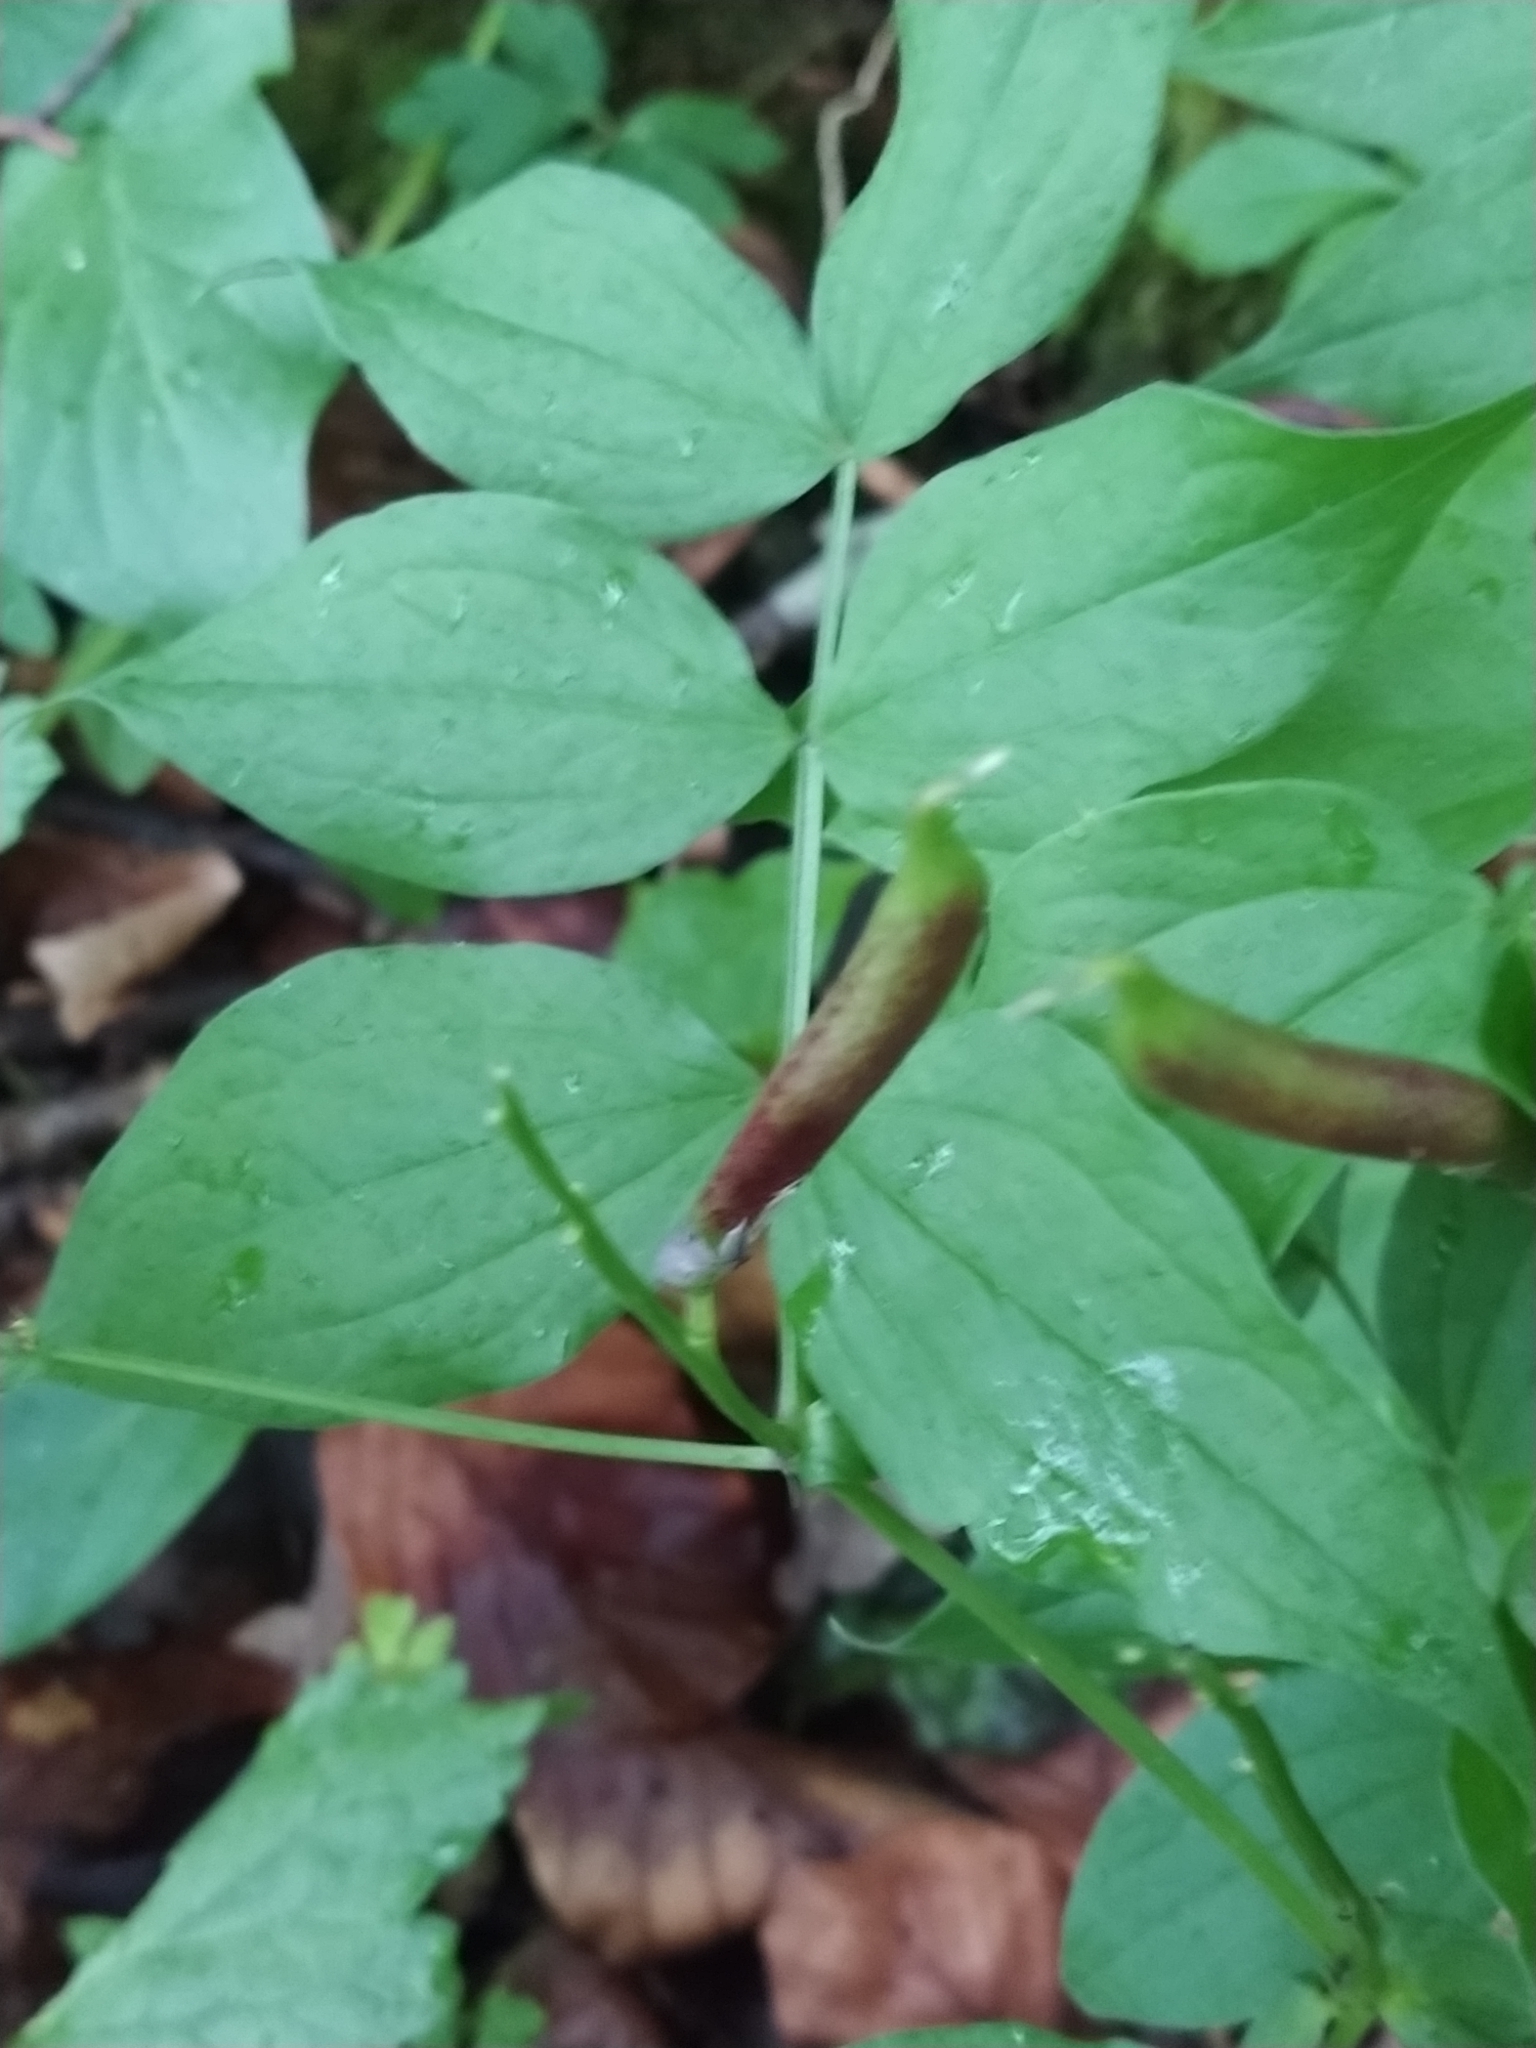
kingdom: Plantae
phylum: Tracheophyta
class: Magnoliopsida
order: Fabales
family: Fabaceae
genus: Lathyrus
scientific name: Lathyrus vernus
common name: Spring pea
